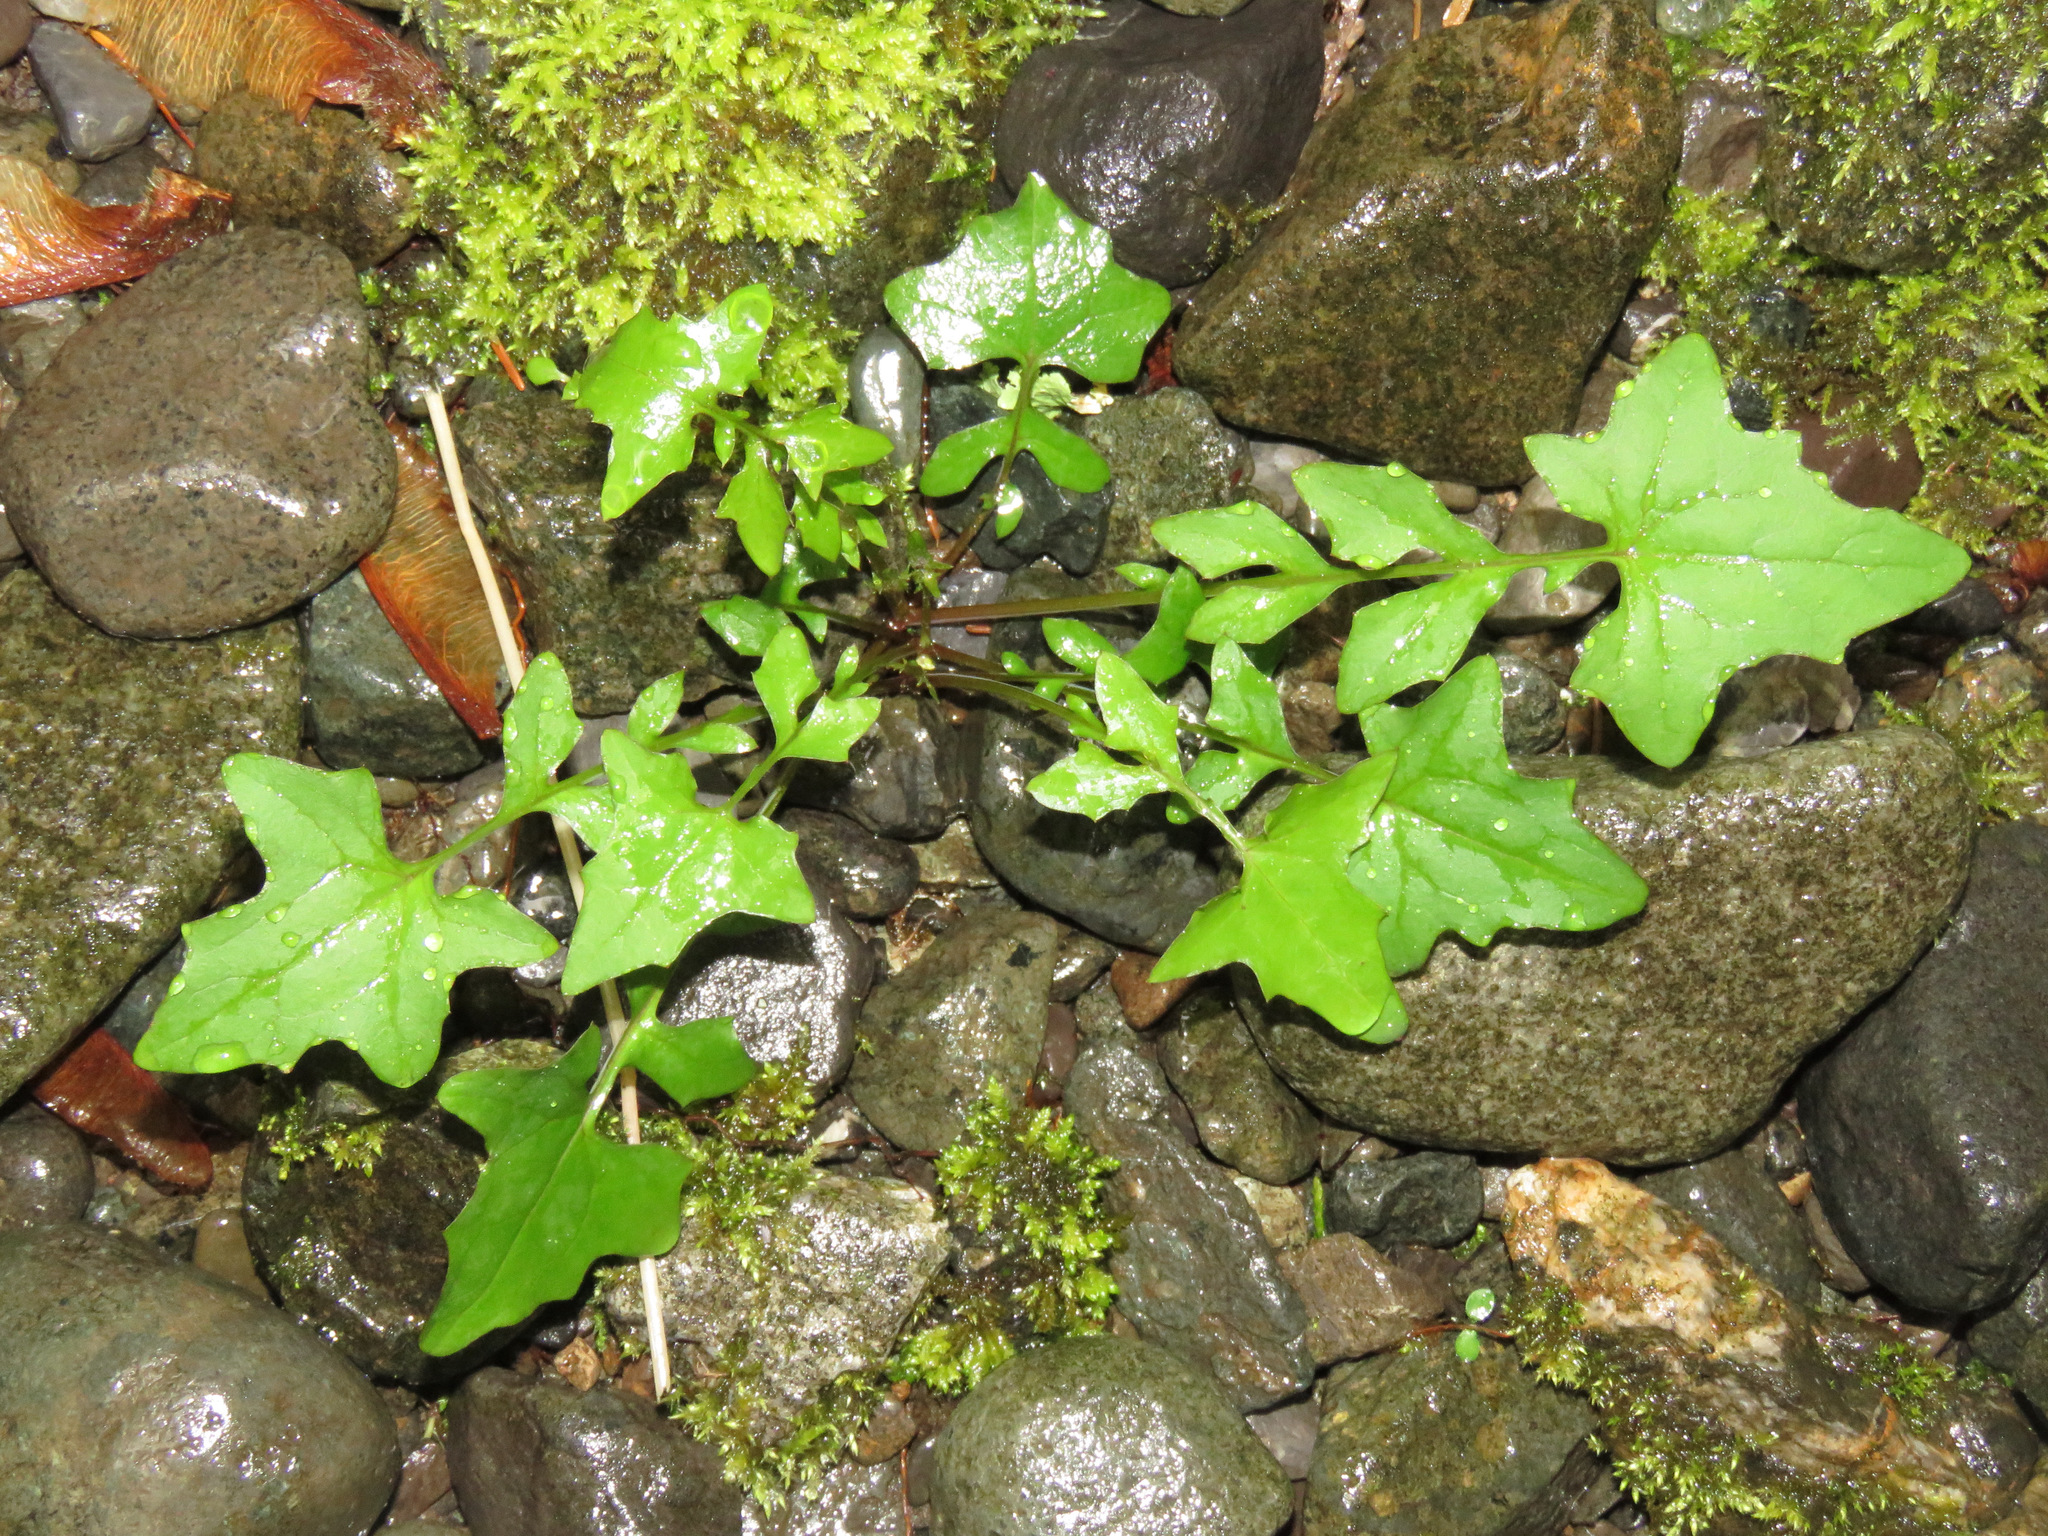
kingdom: Plantae
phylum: Tracheophyta
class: Magnoliopsida
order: Asterales
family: Asteraceae
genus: Mycelis
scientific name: Mycelis muralis
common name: Wall lettuce
